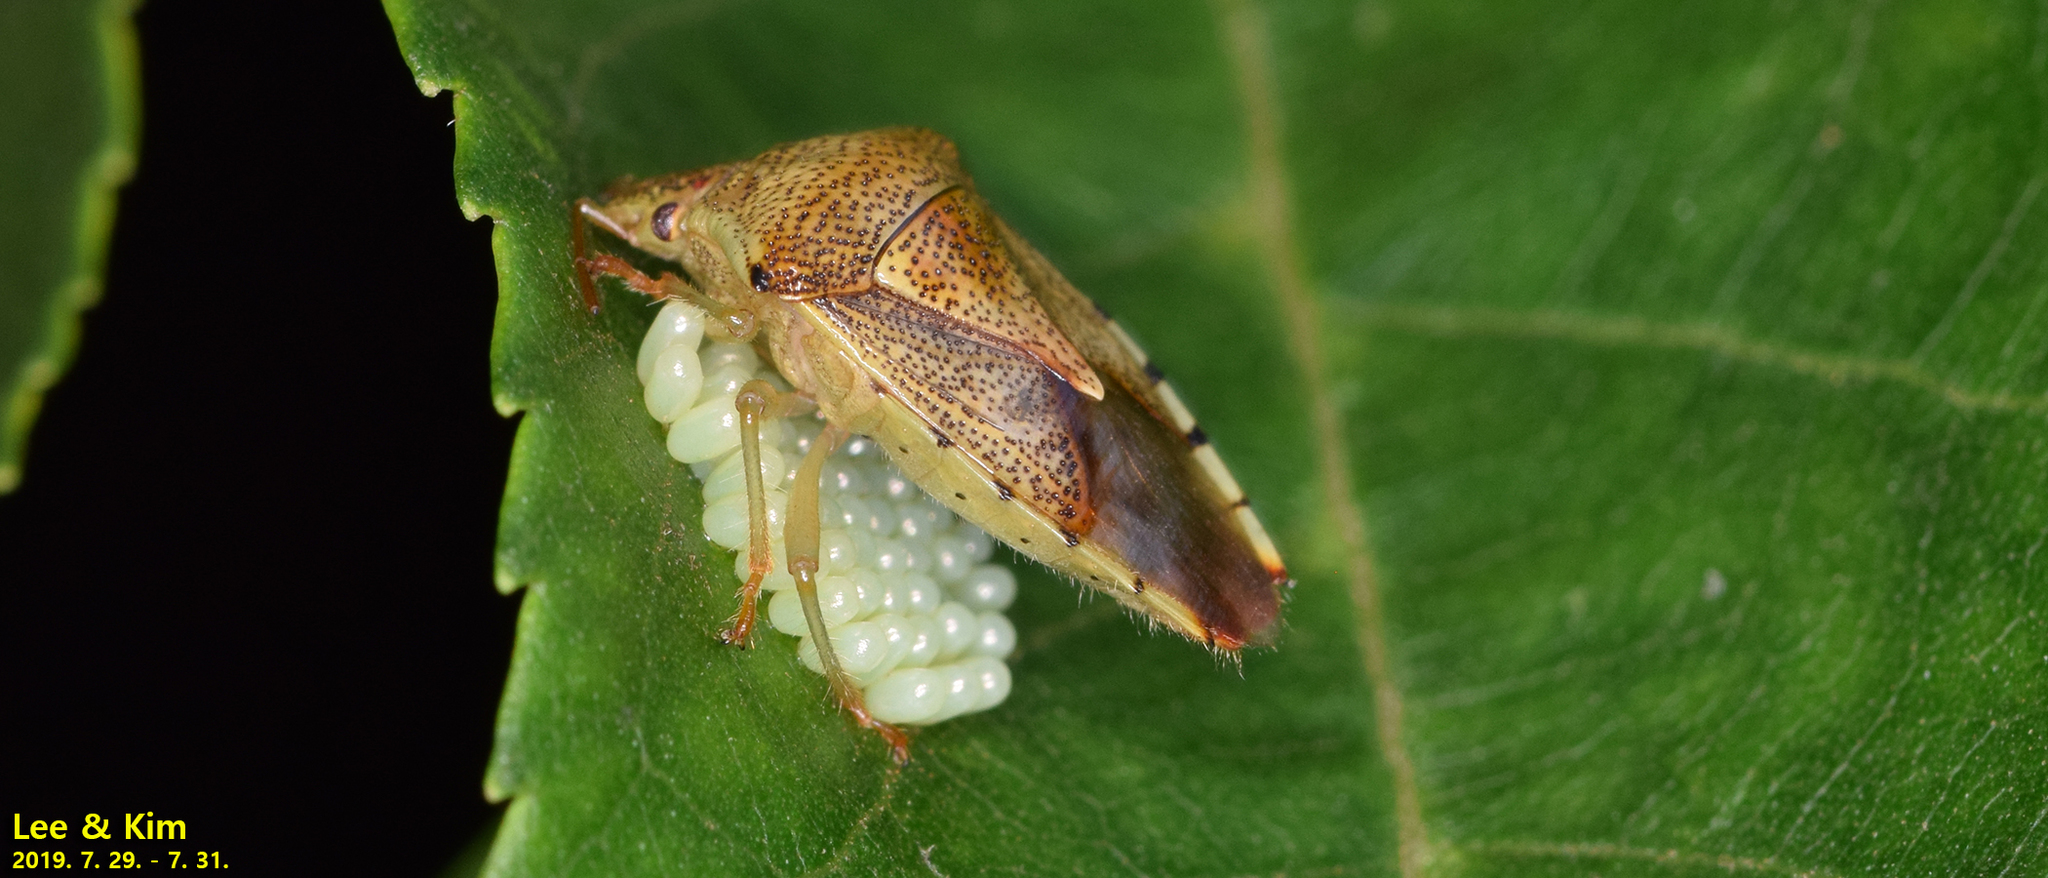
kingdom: Animalia
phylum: Arthropoda
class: Insecta
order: Hemiptera
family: Acanthosomatidae
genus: Elasmucha
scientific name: Elasmucha putoni
